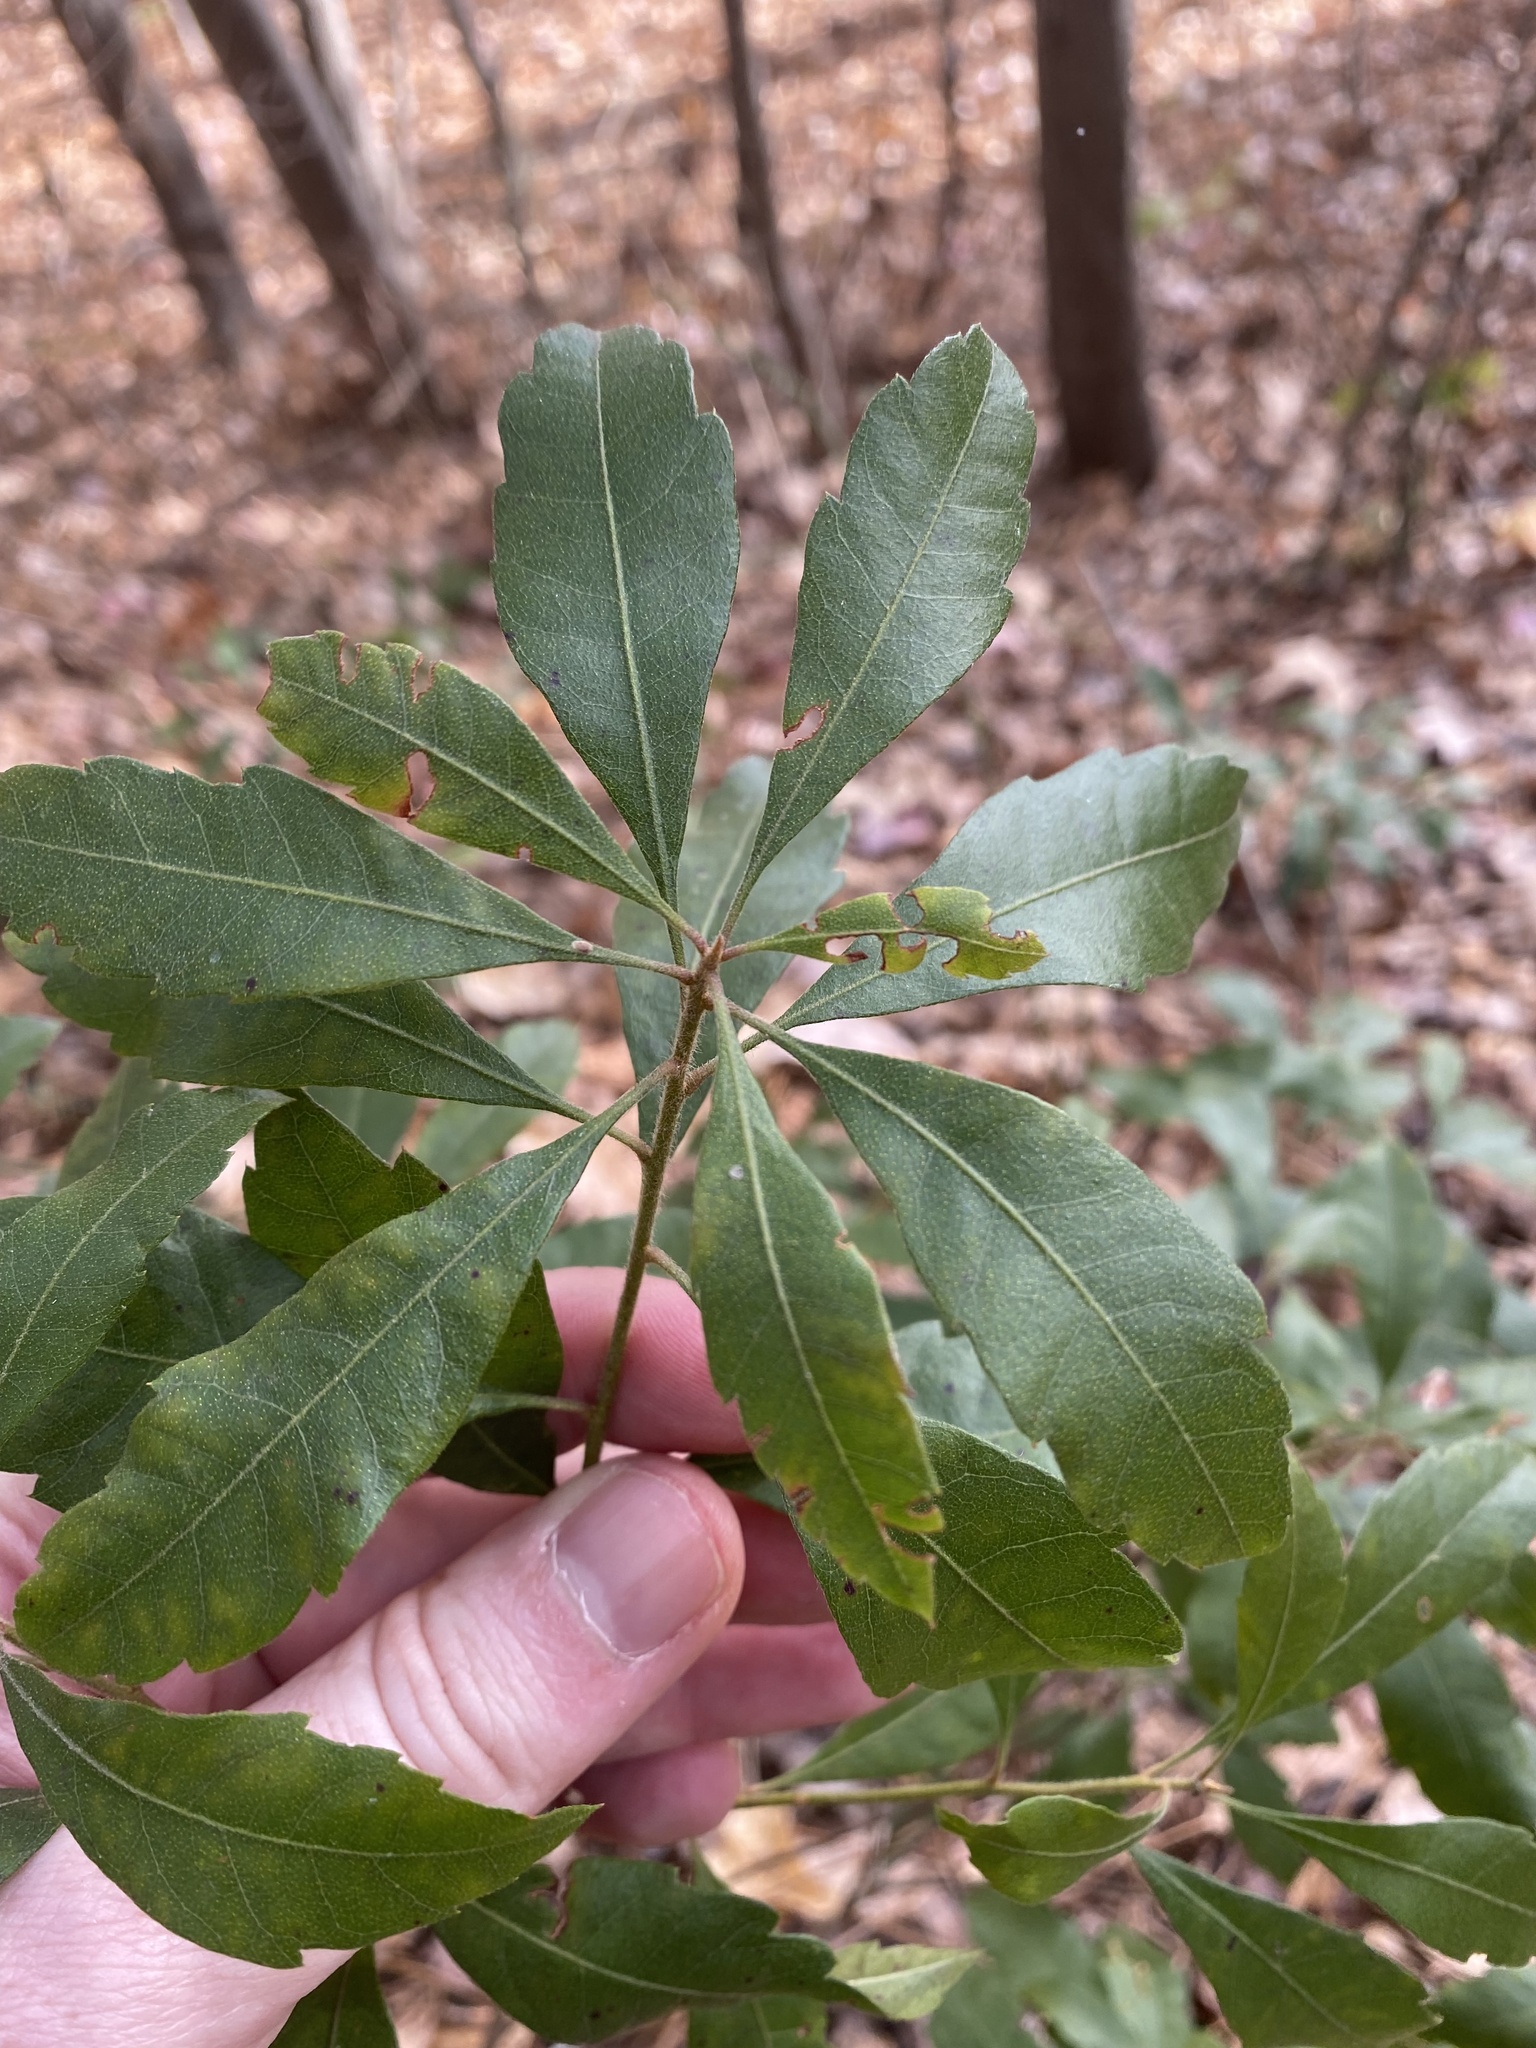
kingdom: Plantae
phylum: Tracheophyta
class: Magnoliopsida
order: Fagales
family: Myricaceae
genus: Morella
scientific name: Morella cerifera
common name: Wax myrtle
